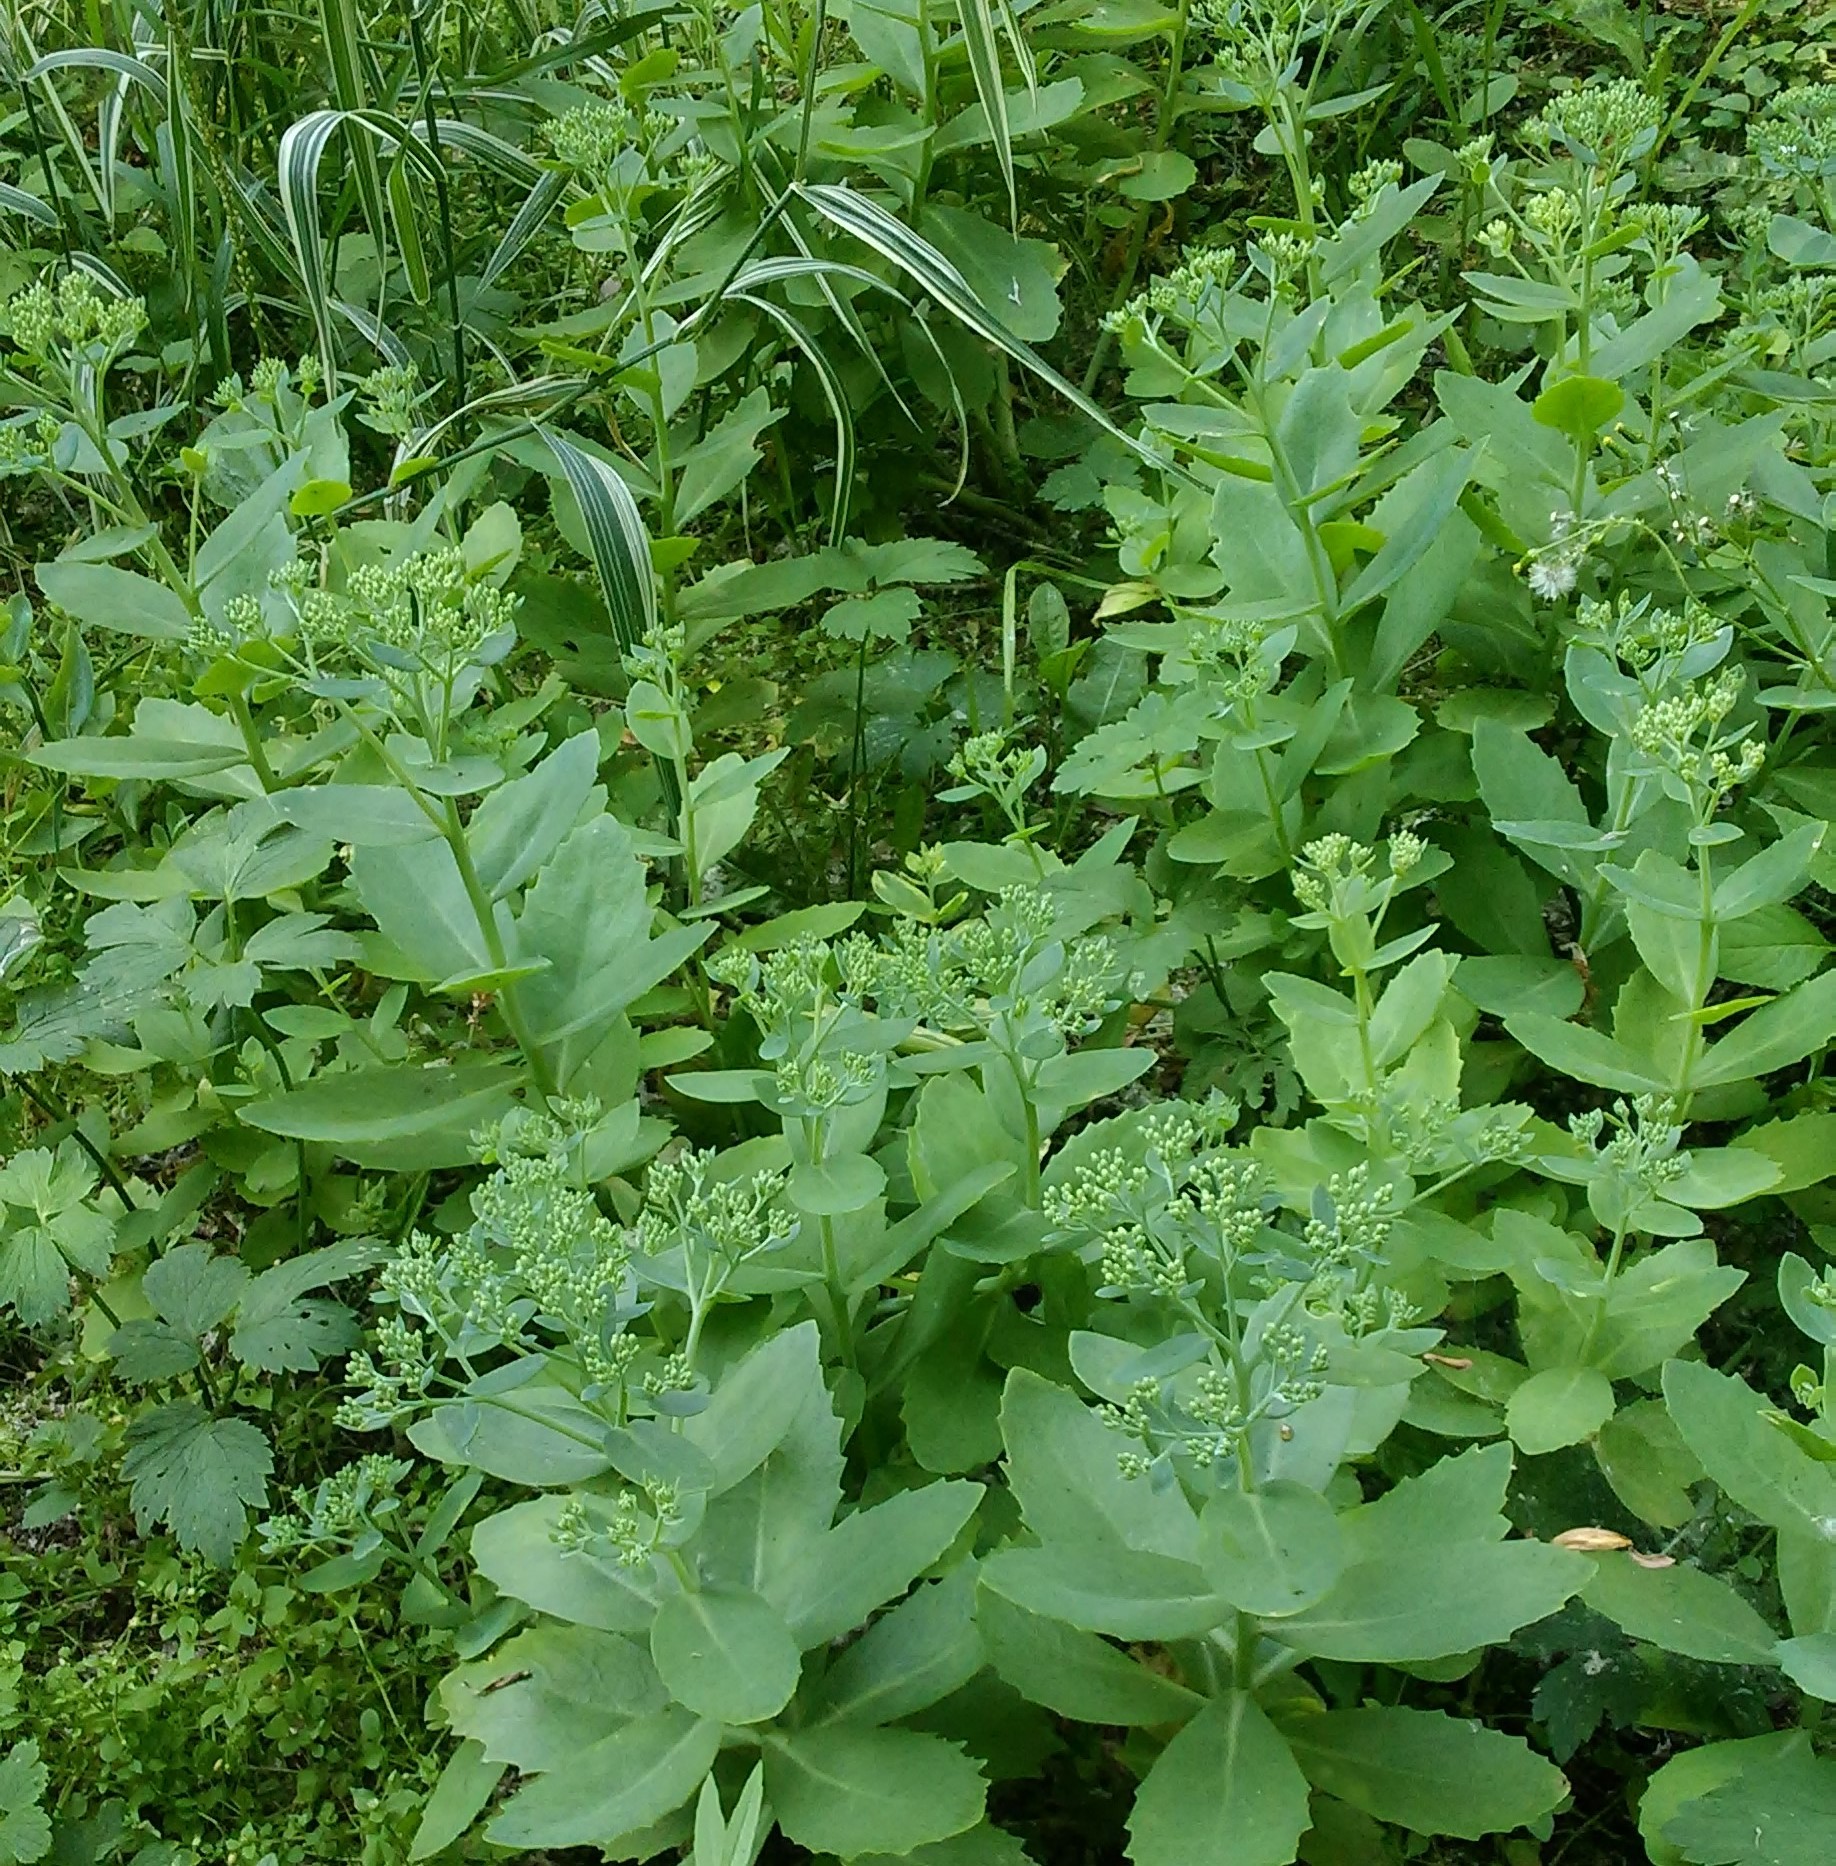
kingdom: Plantae
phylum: Tracheophyta
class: Magnoliopsida
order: Saxifragales
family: Crassulaceae
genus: Hylotelephium
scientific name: Hylotelephium
